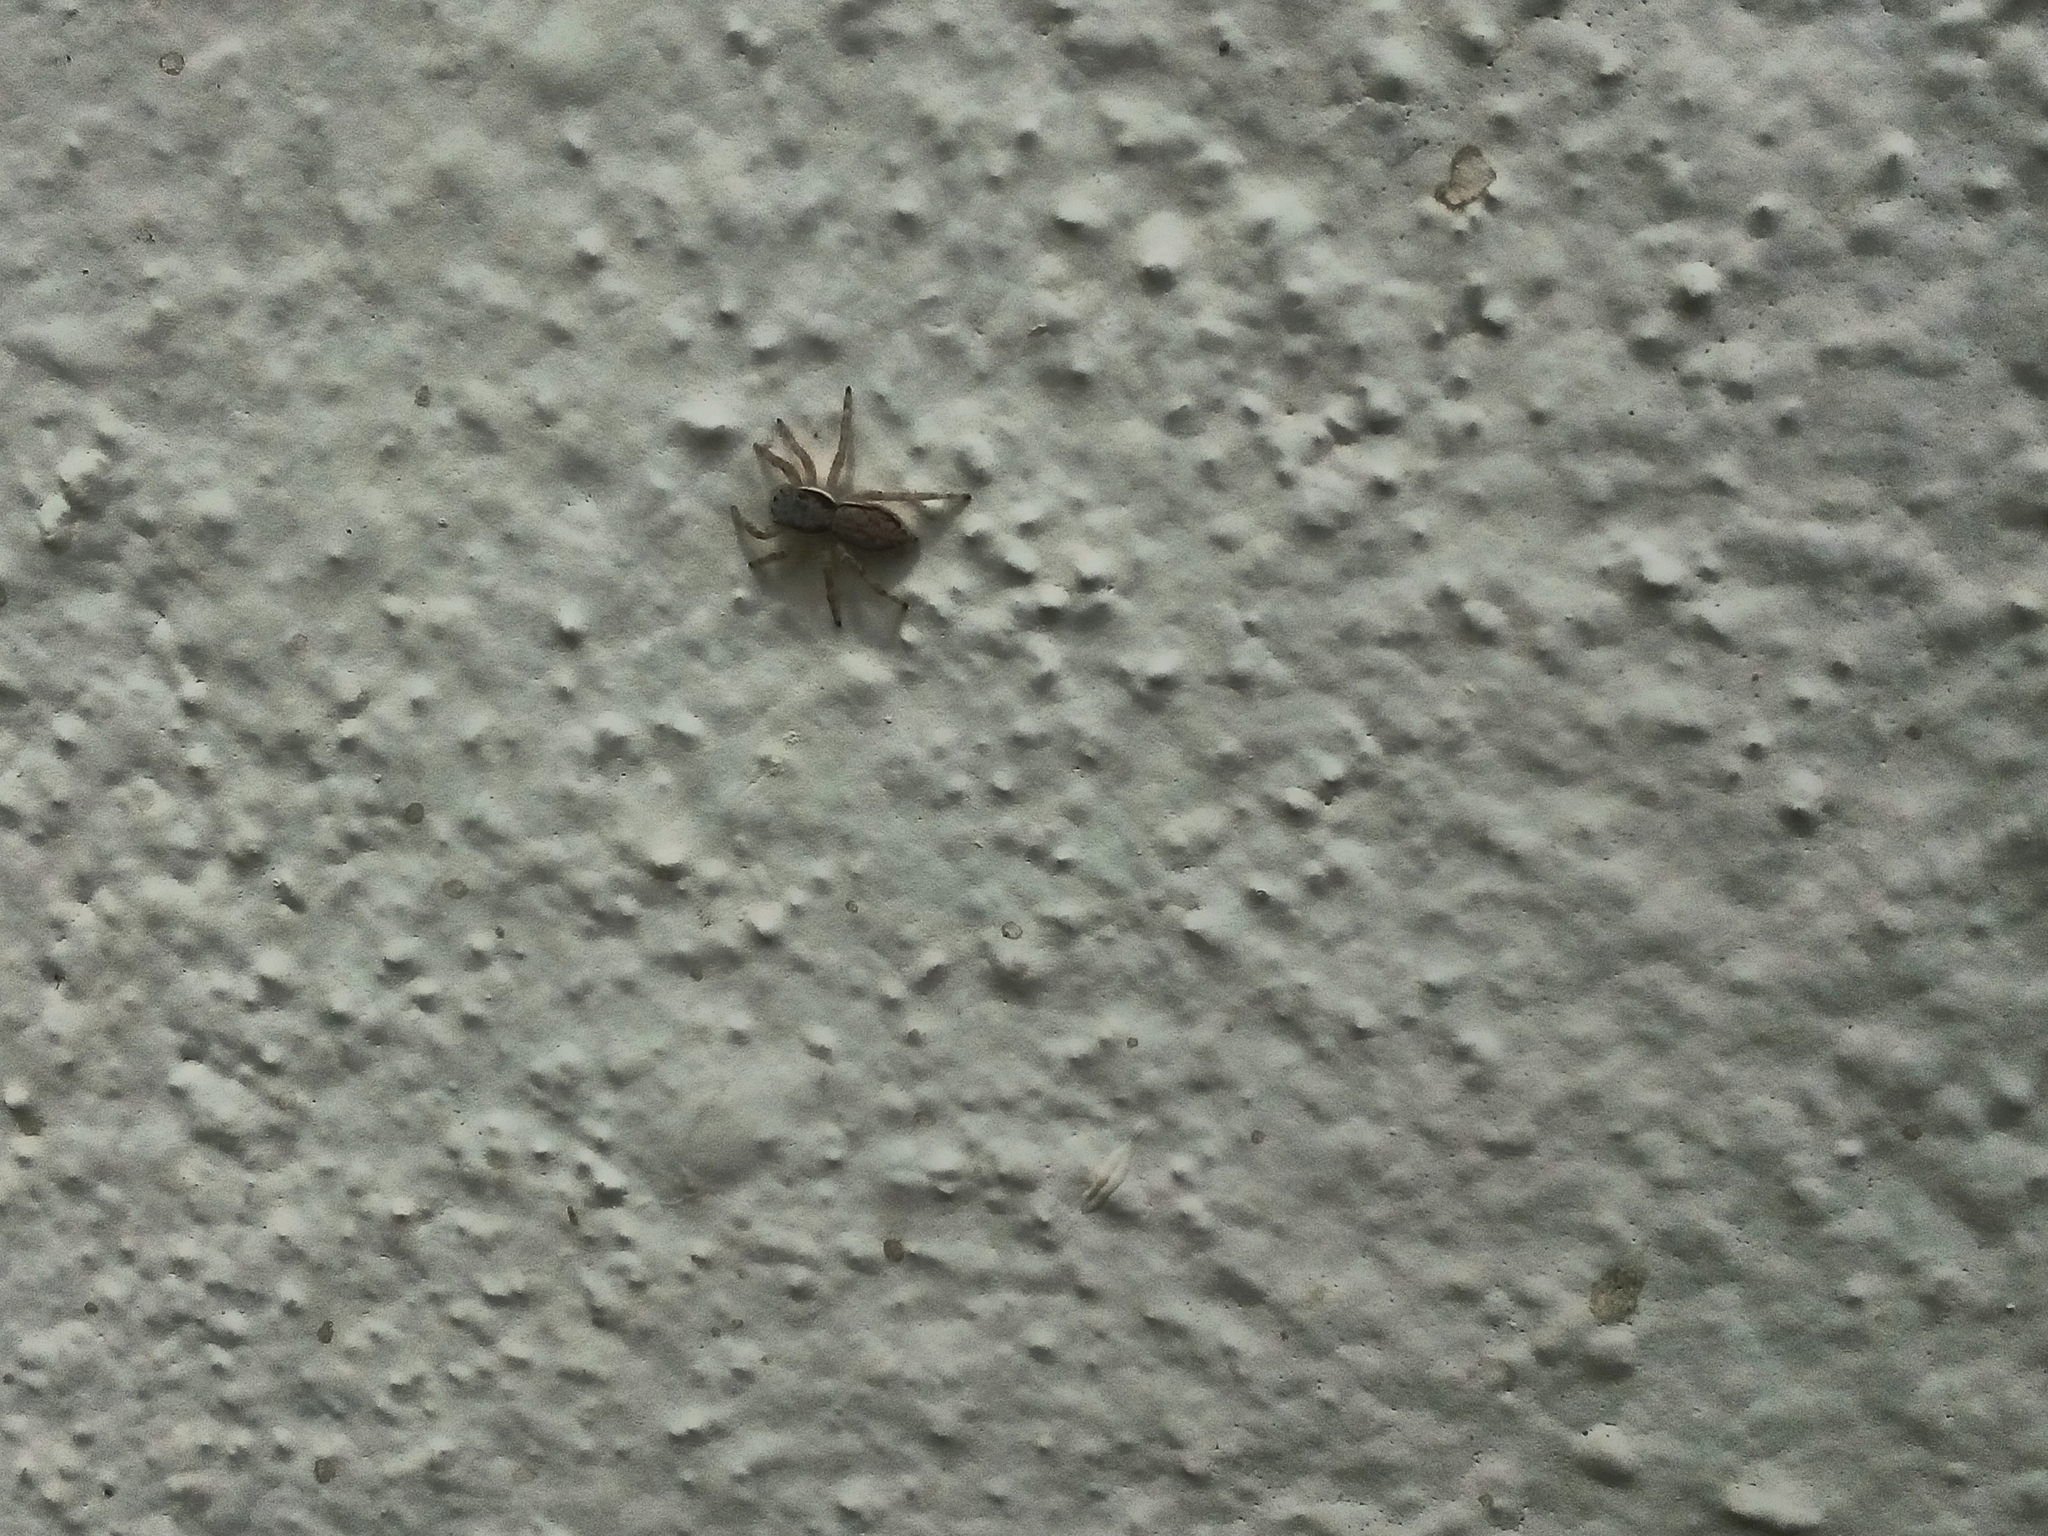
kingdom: Animalia
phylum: Arthropoda
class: Arachnida
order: Araneae
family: Salticidae
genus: Menemerus
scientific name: Menemerus bivittatus
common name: Gray wall jumper
